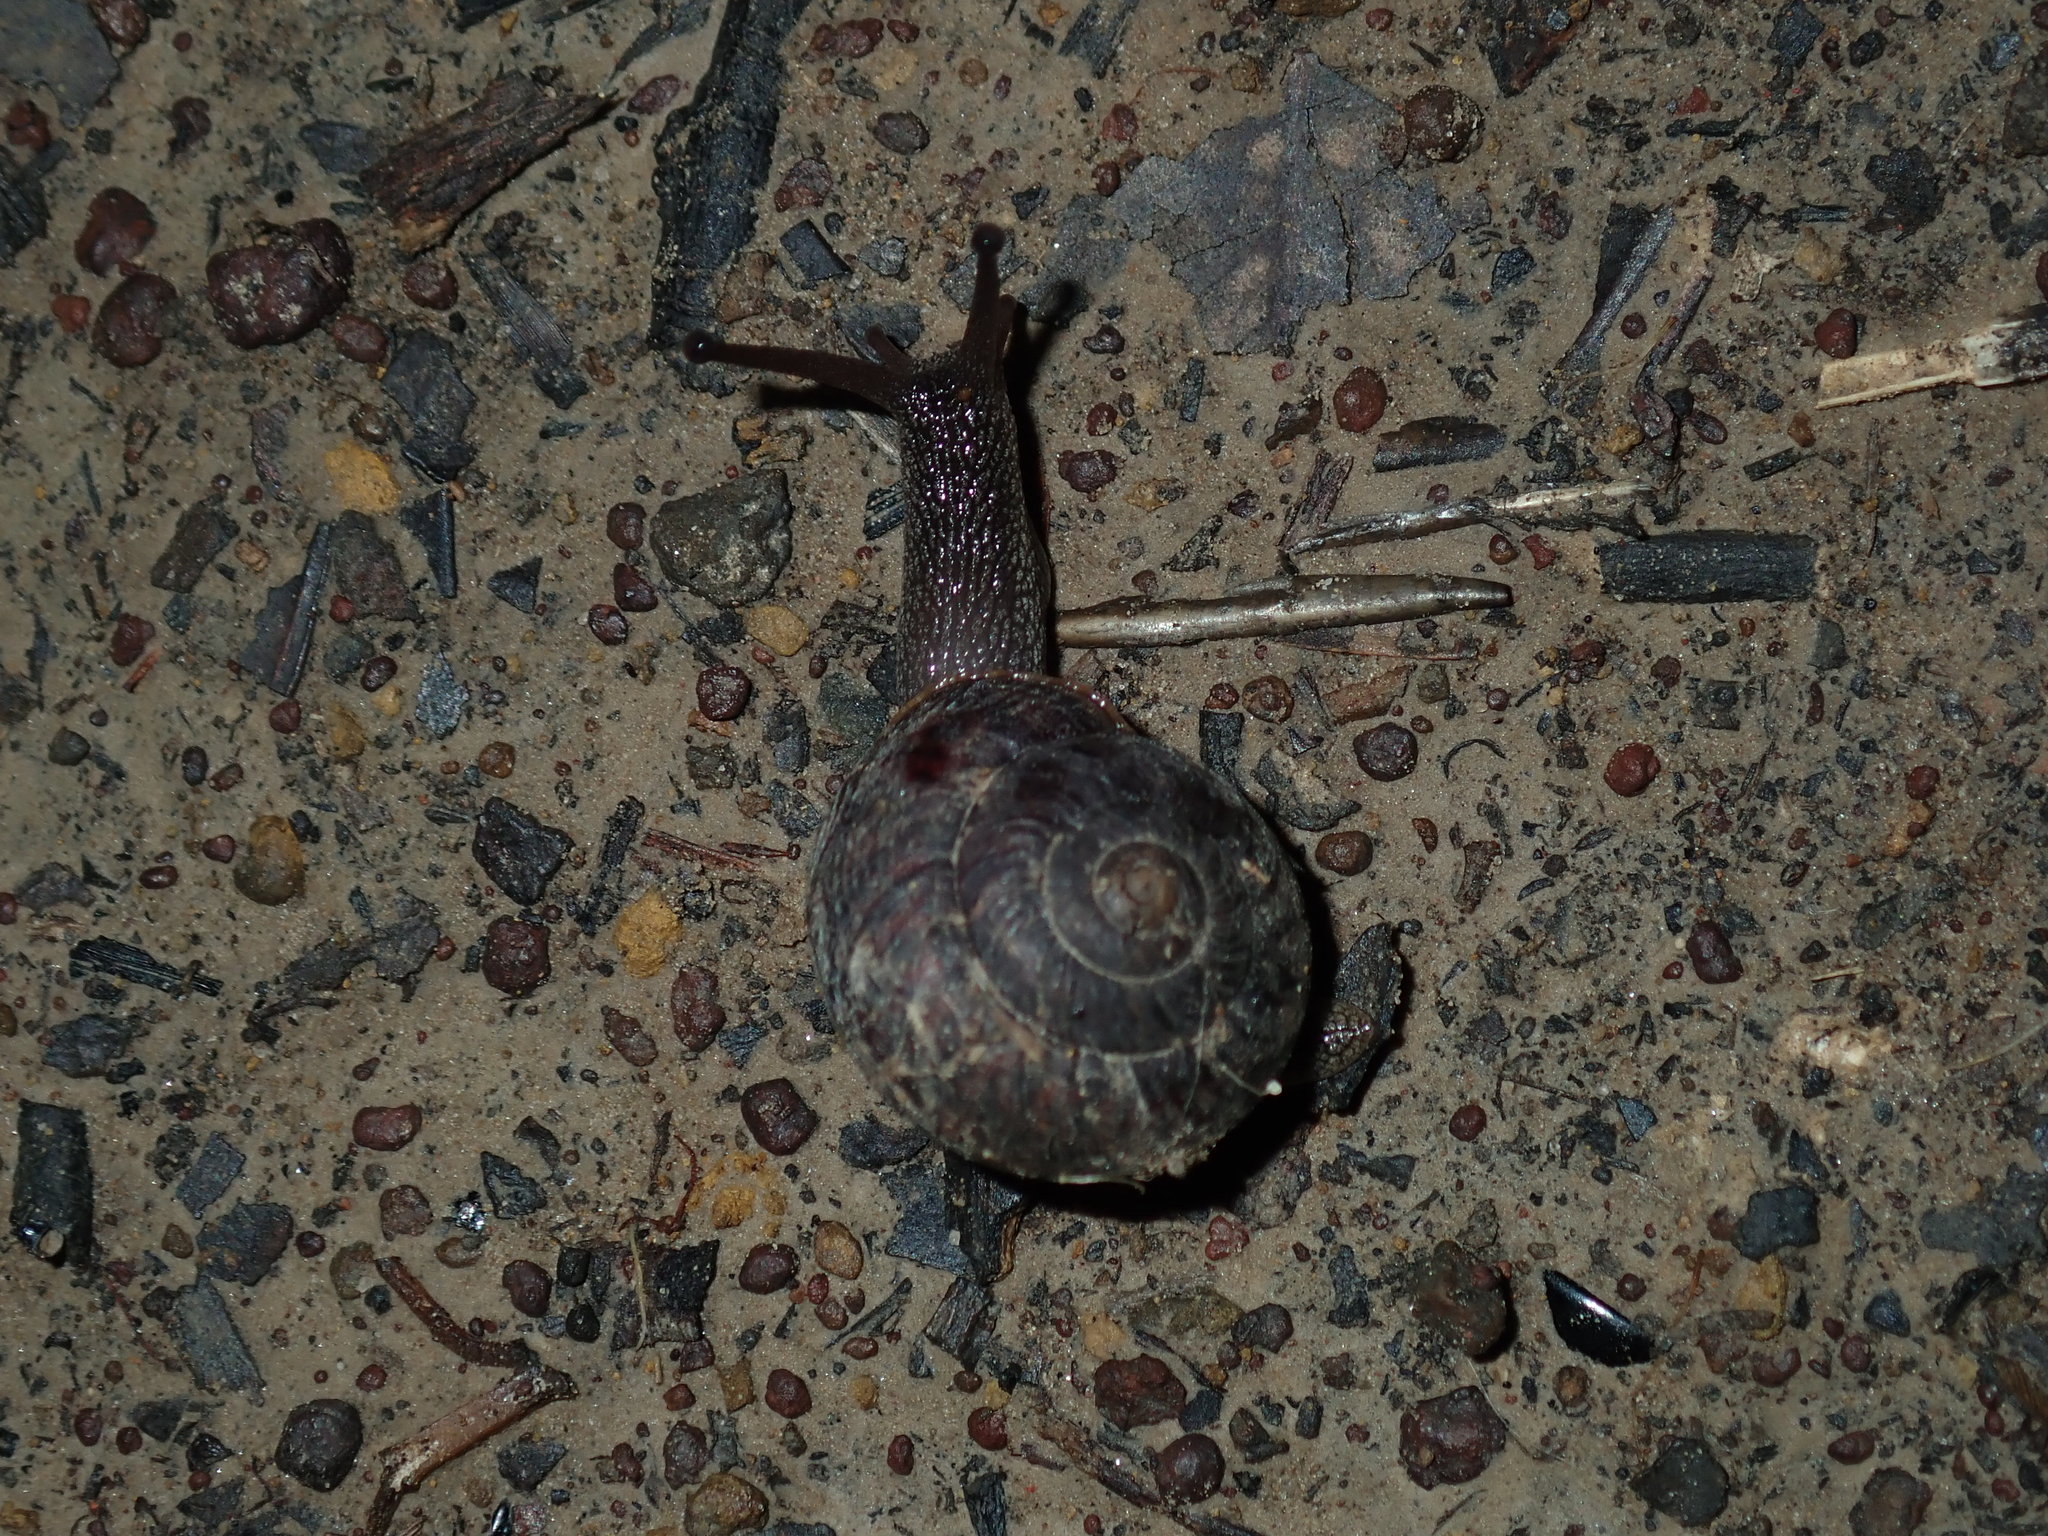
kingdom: Animalia
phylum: Mollusca
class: Gastropoda
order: Stylommatophora
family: Camaenidae
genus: Sauroconcha
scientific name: Sauroconcha sheai
